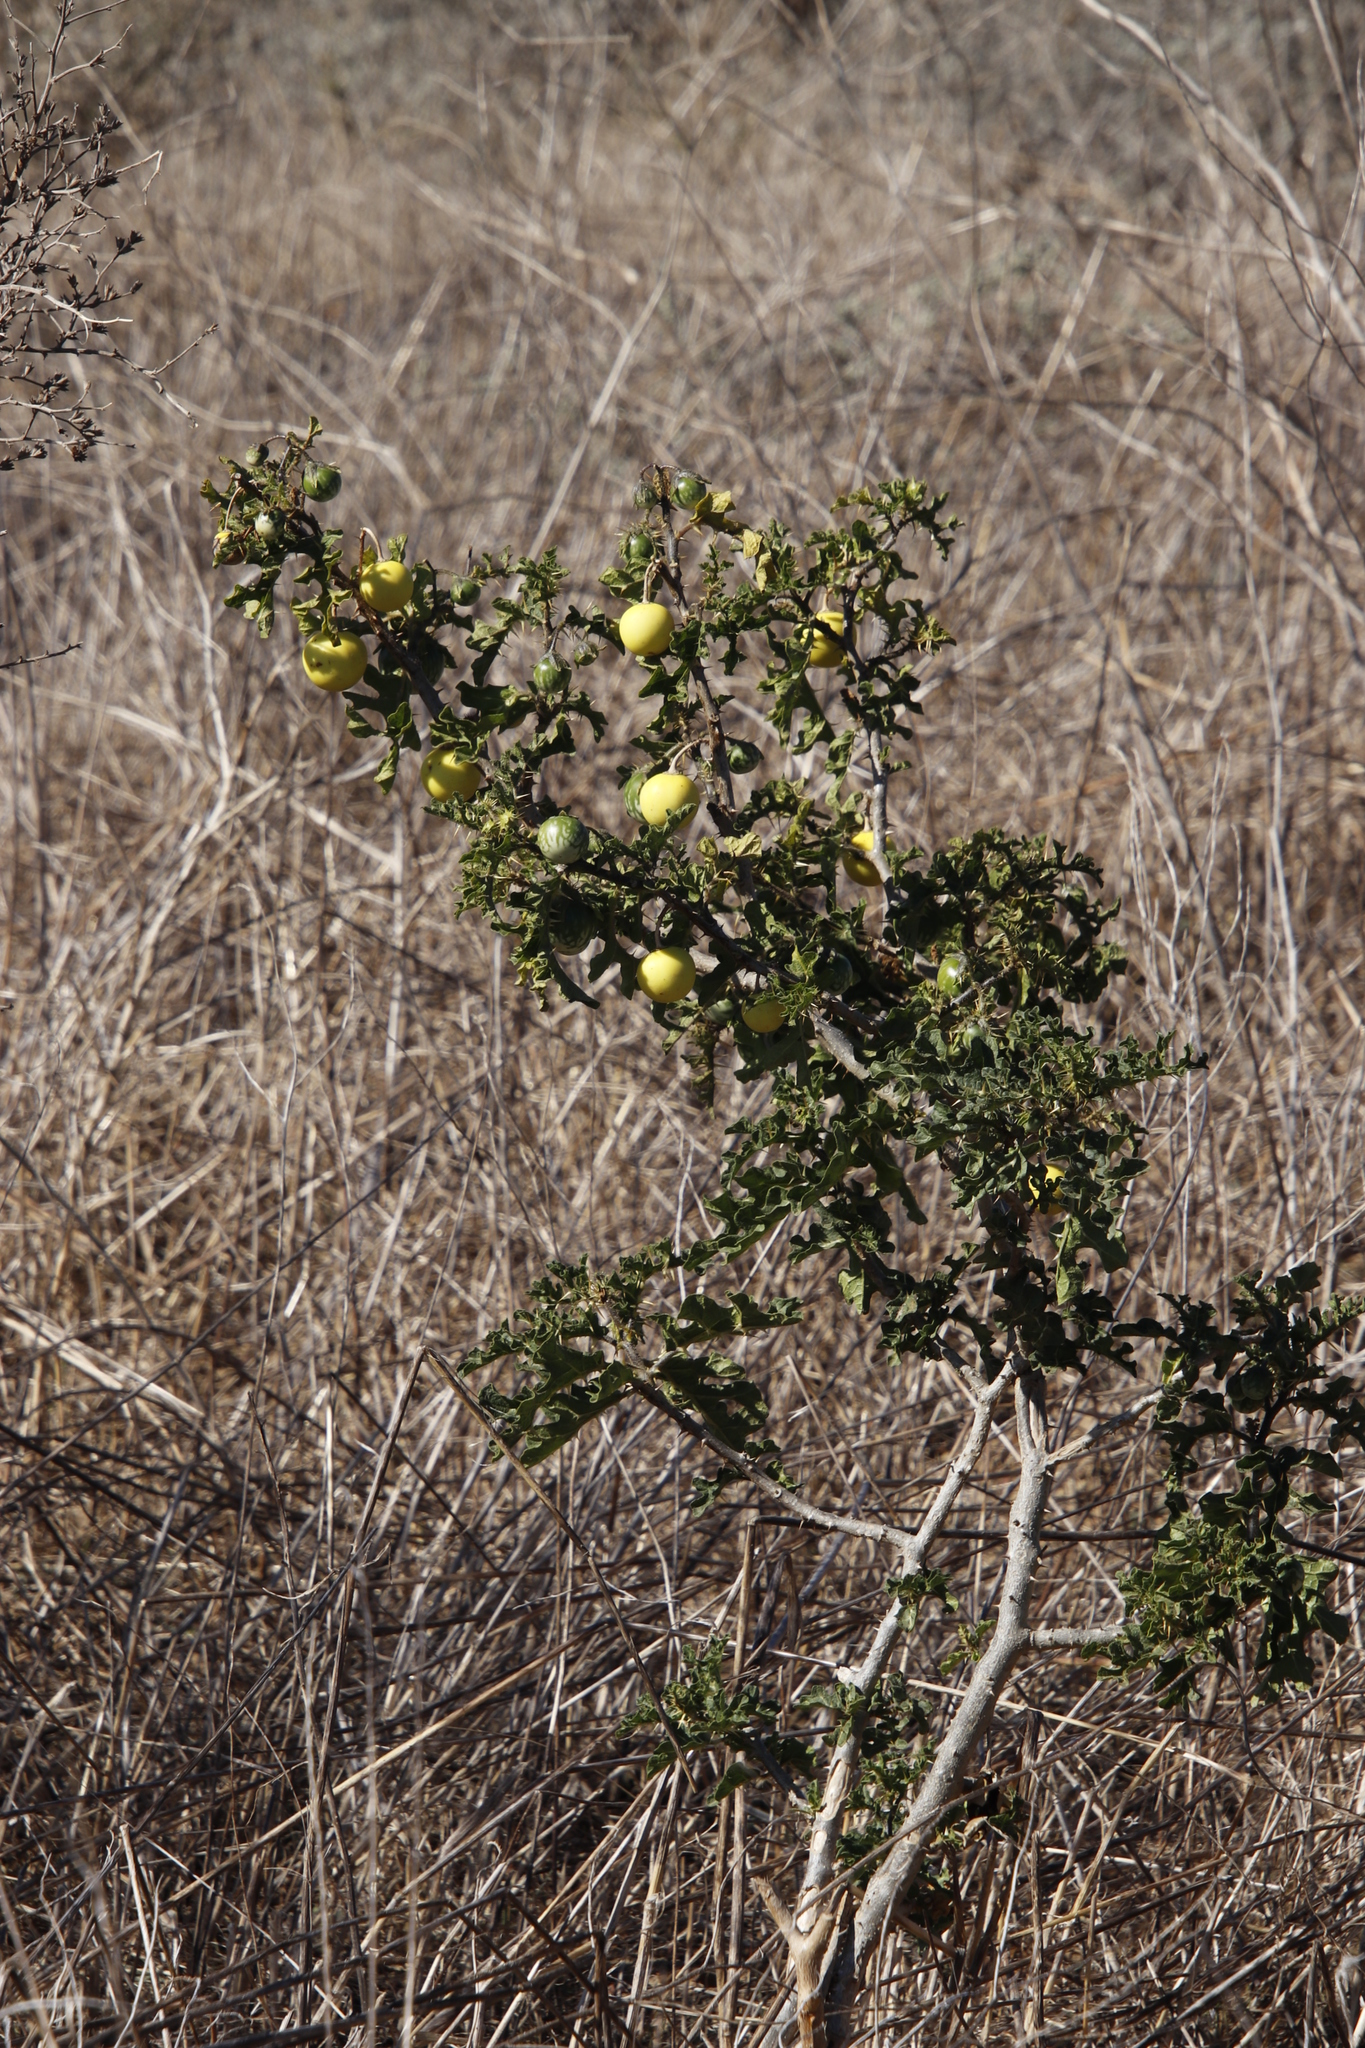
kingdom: Plantae
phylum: Tracheophyta
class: Magnoliopsida
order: Solanales
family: Solanaceae
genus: Solanum
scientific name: Solanum linnaeanum
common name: Nightshade
